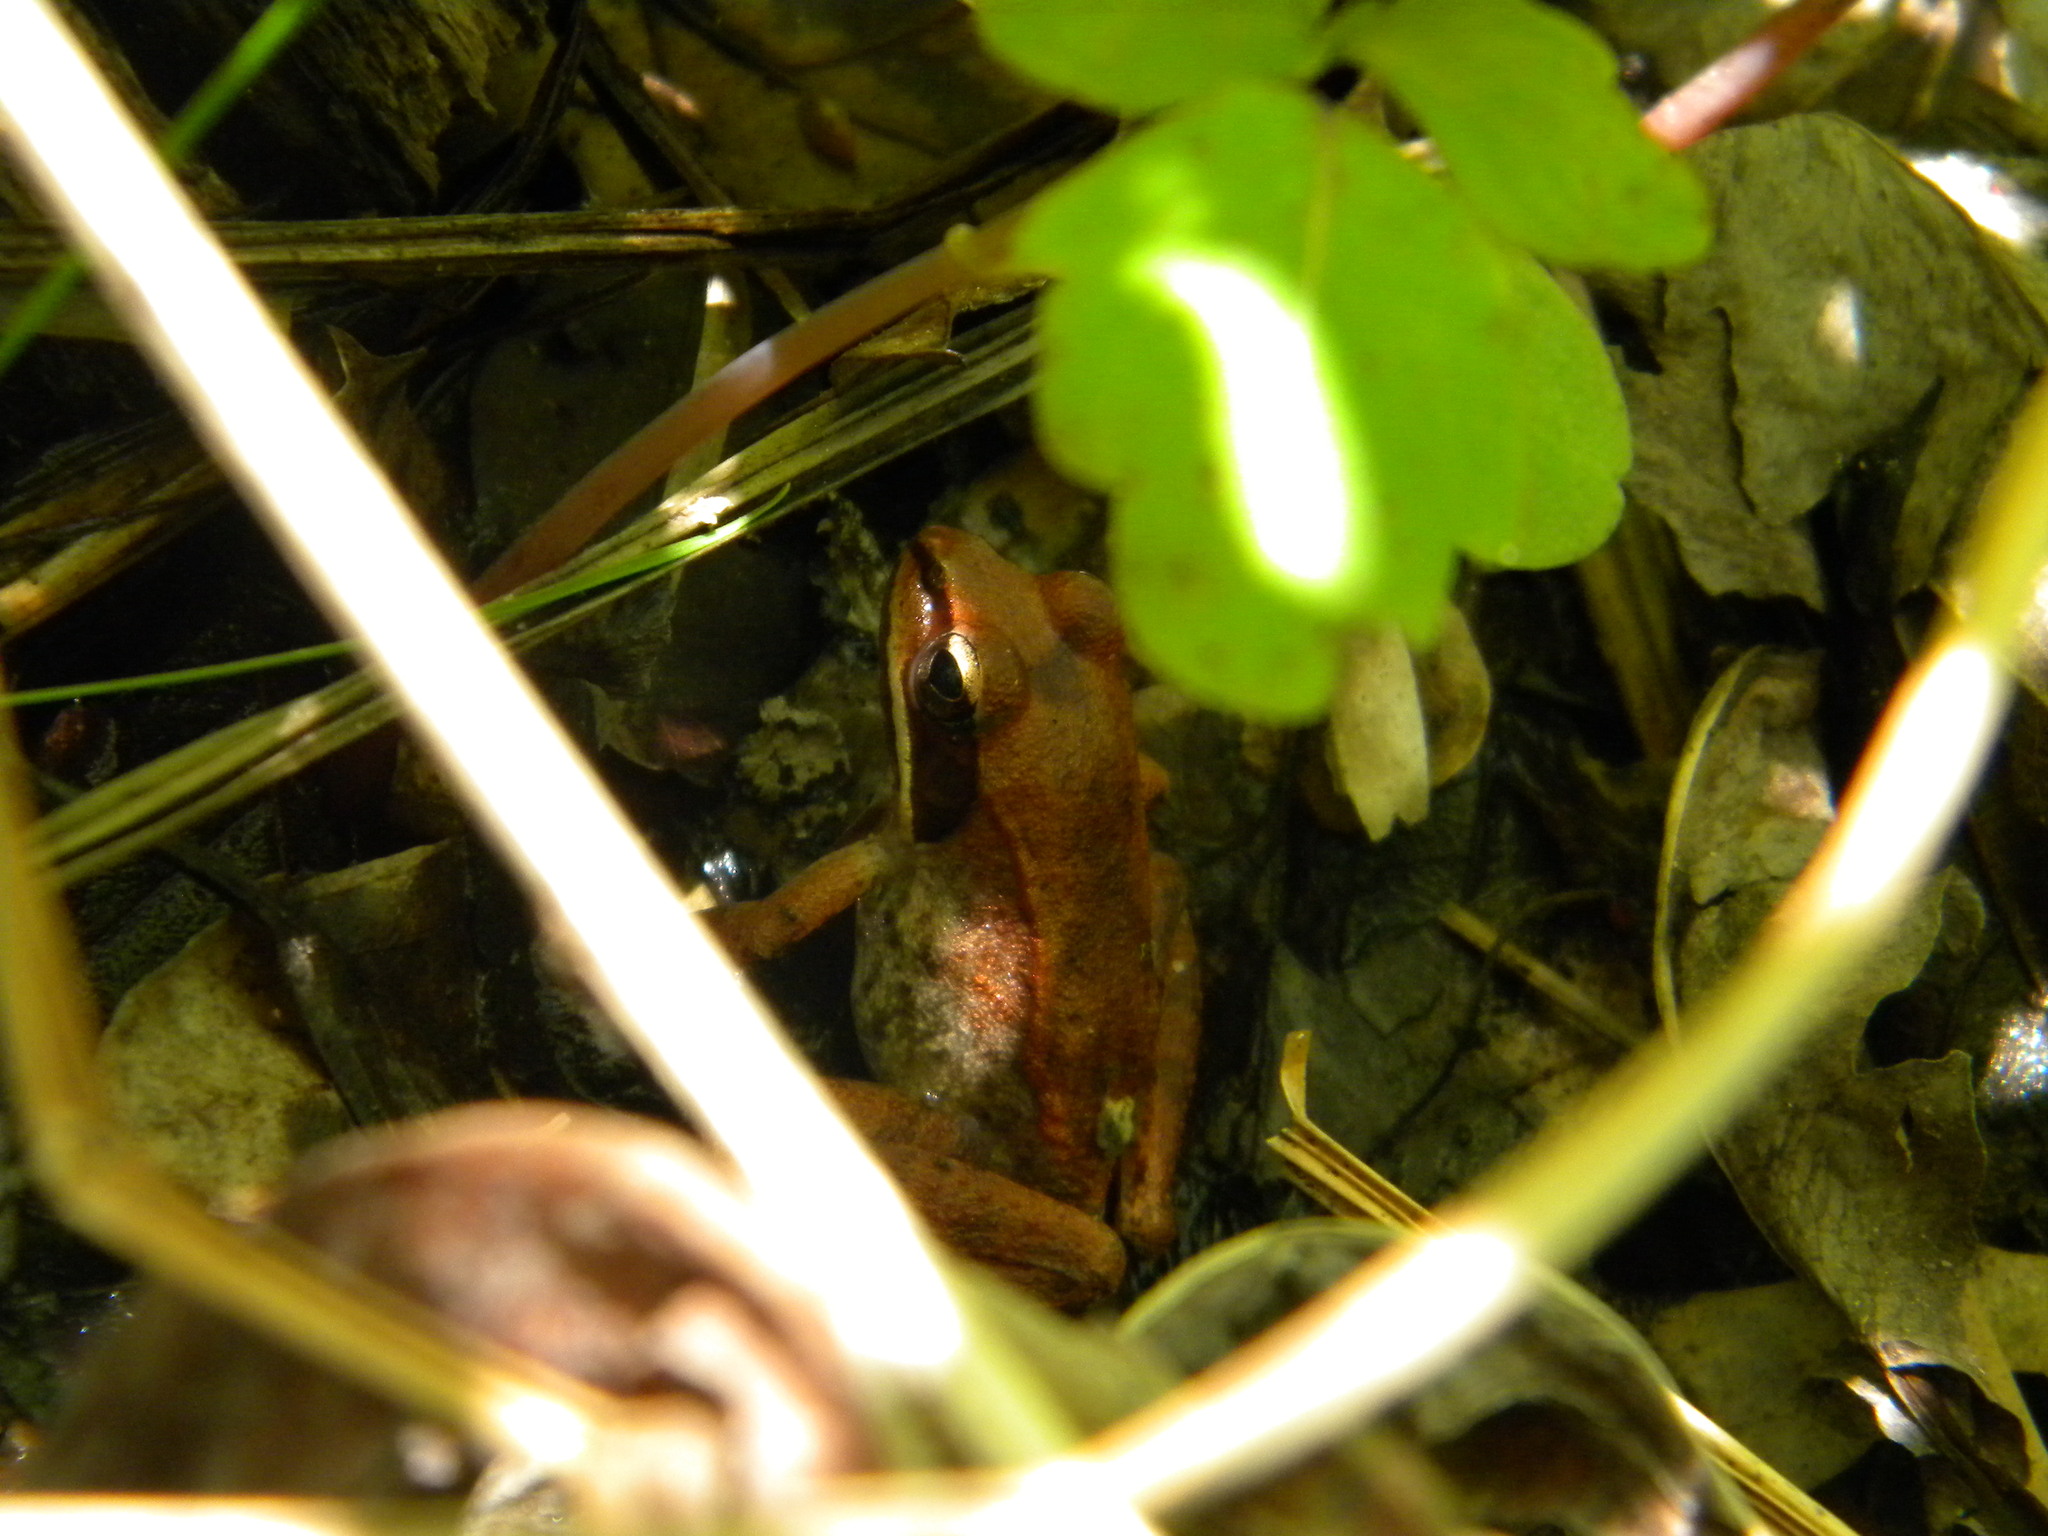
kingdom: Animalia
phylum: Chordata
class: Amphibia
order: Anura
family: Ranidae
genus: Lithobates
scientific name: Lithobates sylvaticus
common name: Wood frog
